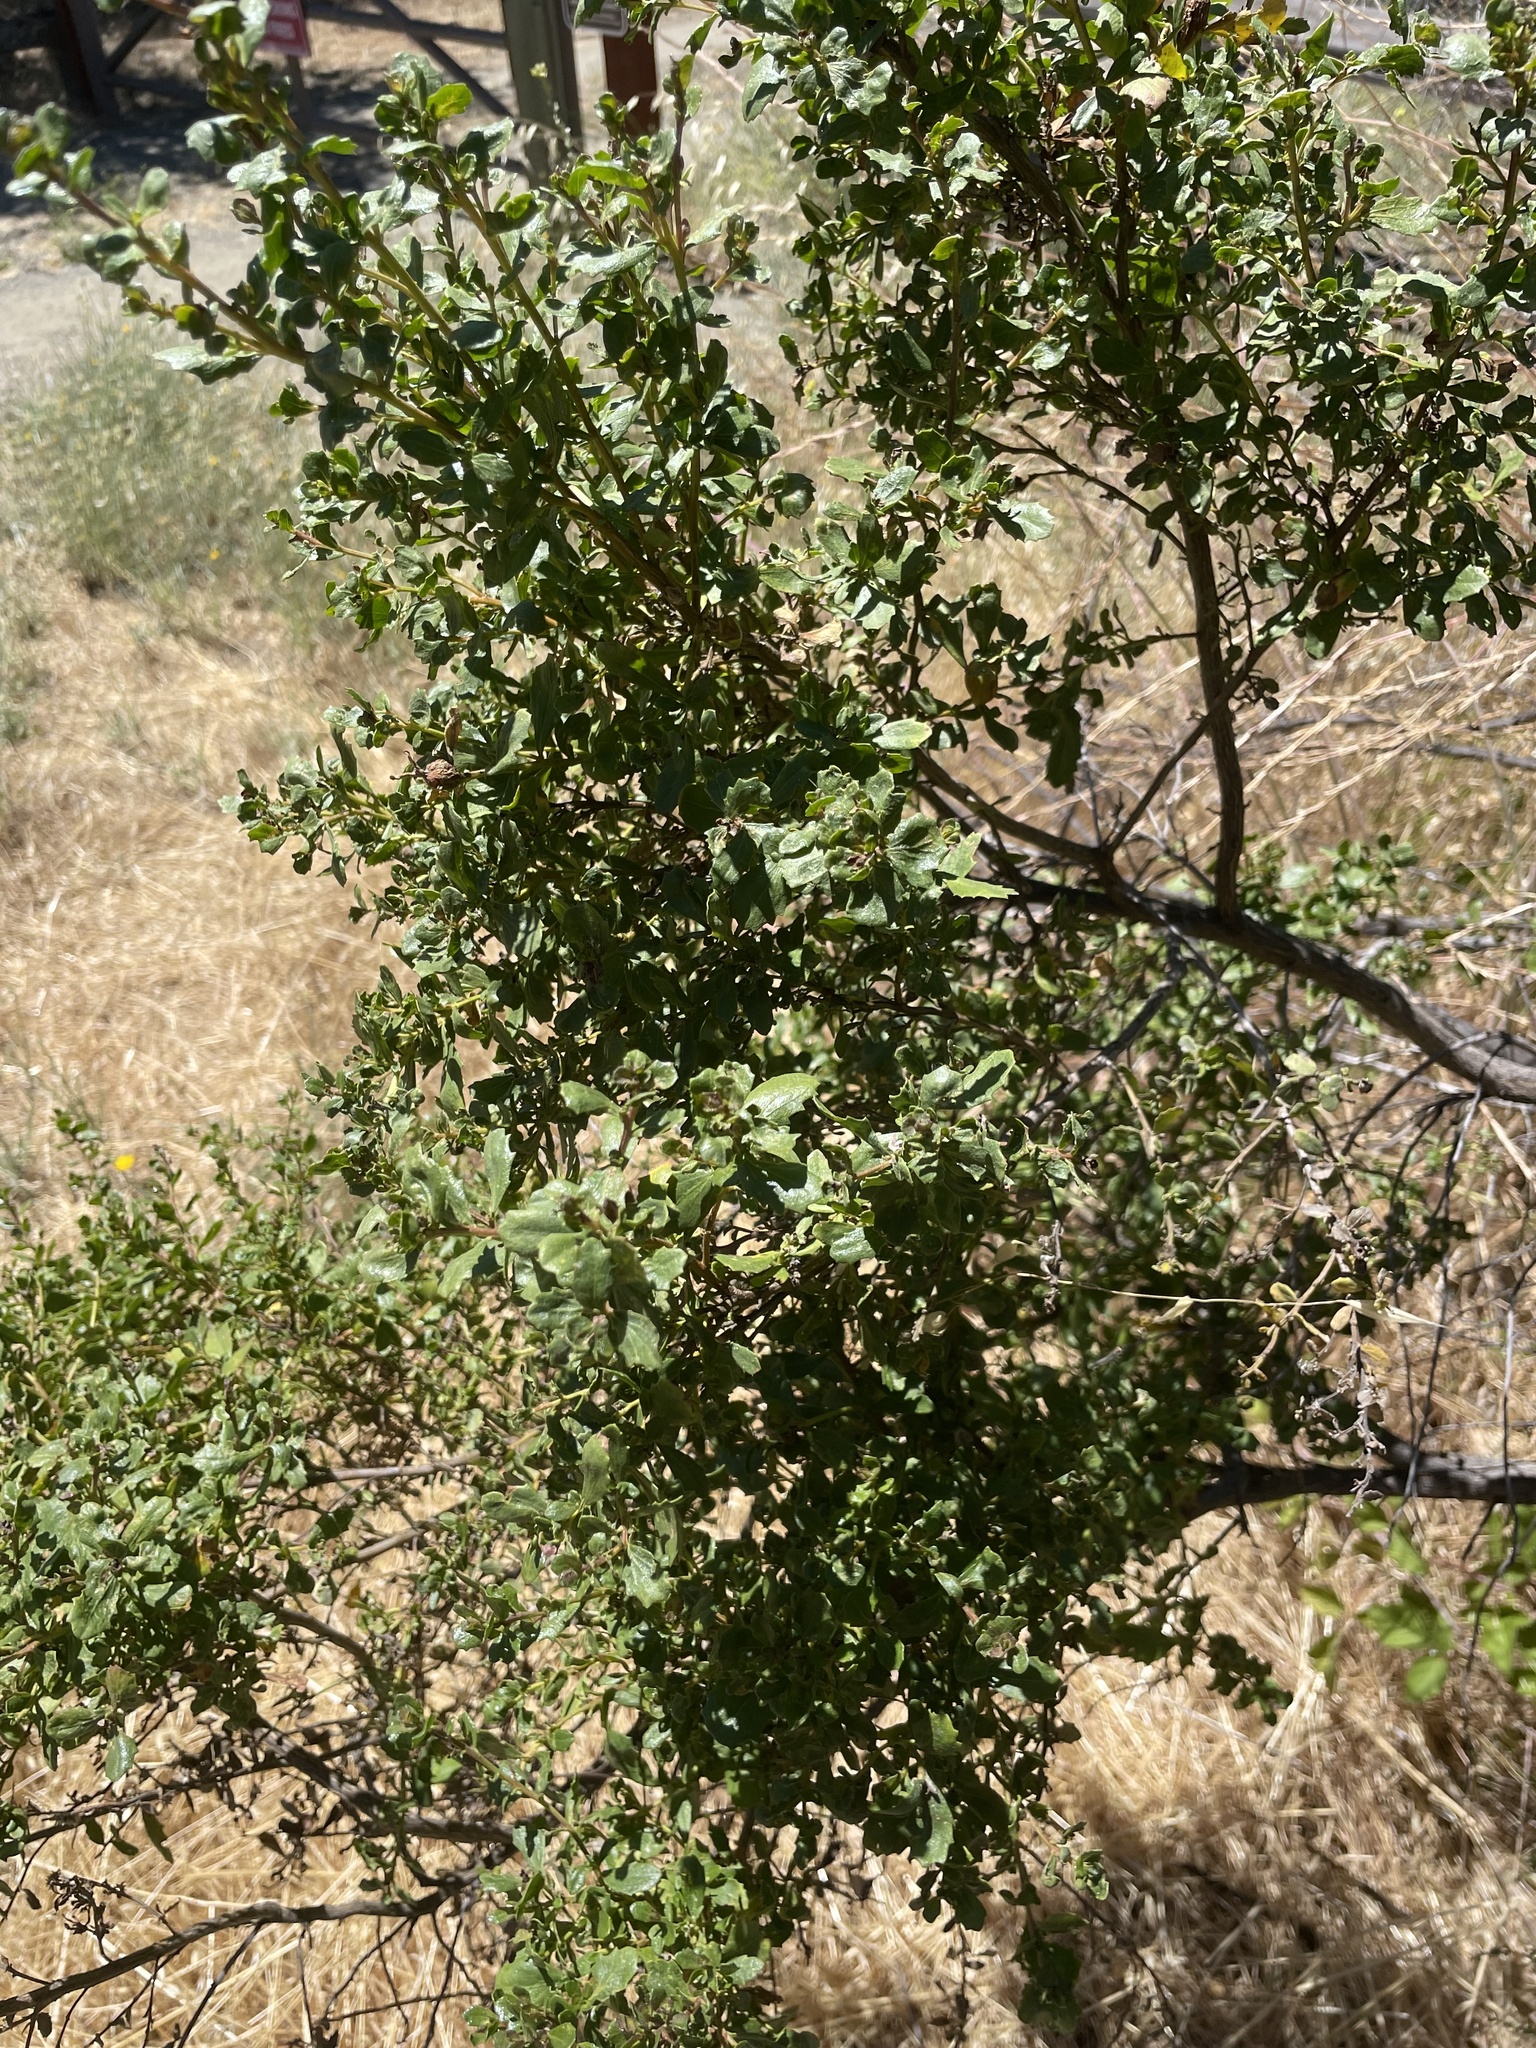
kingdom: Plantae
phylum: Tracheophyta
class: Magnoliopsida
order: Asterales
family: Asteraceae
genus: Baccharis
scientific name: Baccharis pilularis
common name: Coyotebrush
